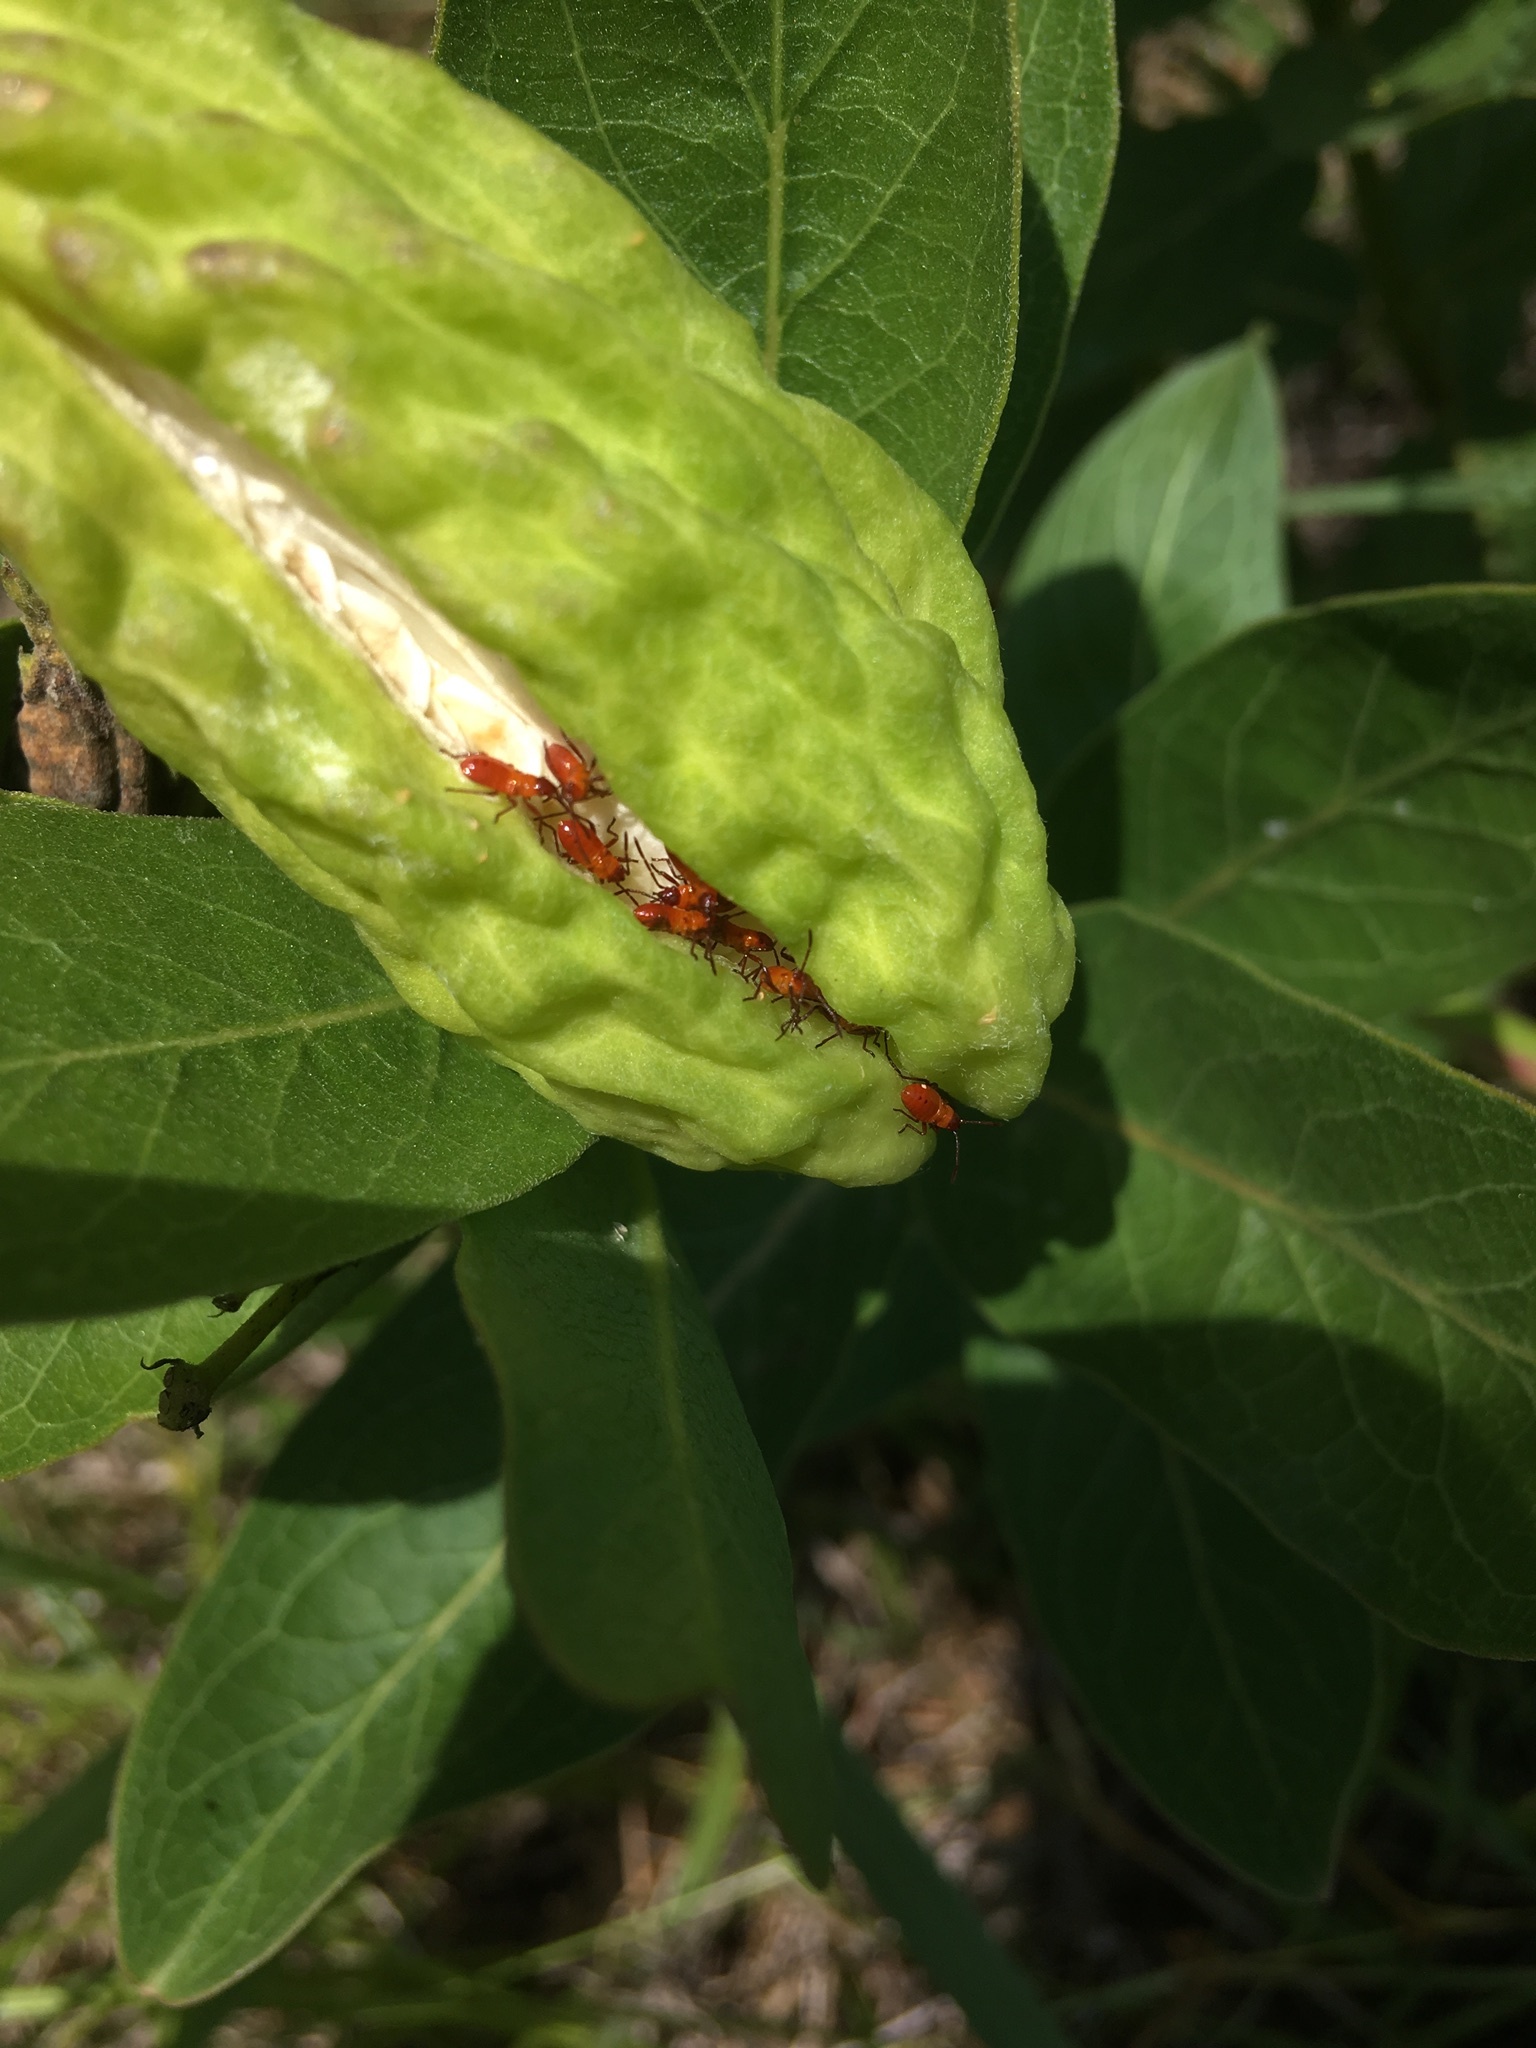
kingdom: Animalia
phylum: Arthropoda
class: Insecta
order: Hemiptera
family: Lygaeidae
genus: Oncopeltus
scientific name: Oncopeltus fasciatus
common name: Large milkweed bug
